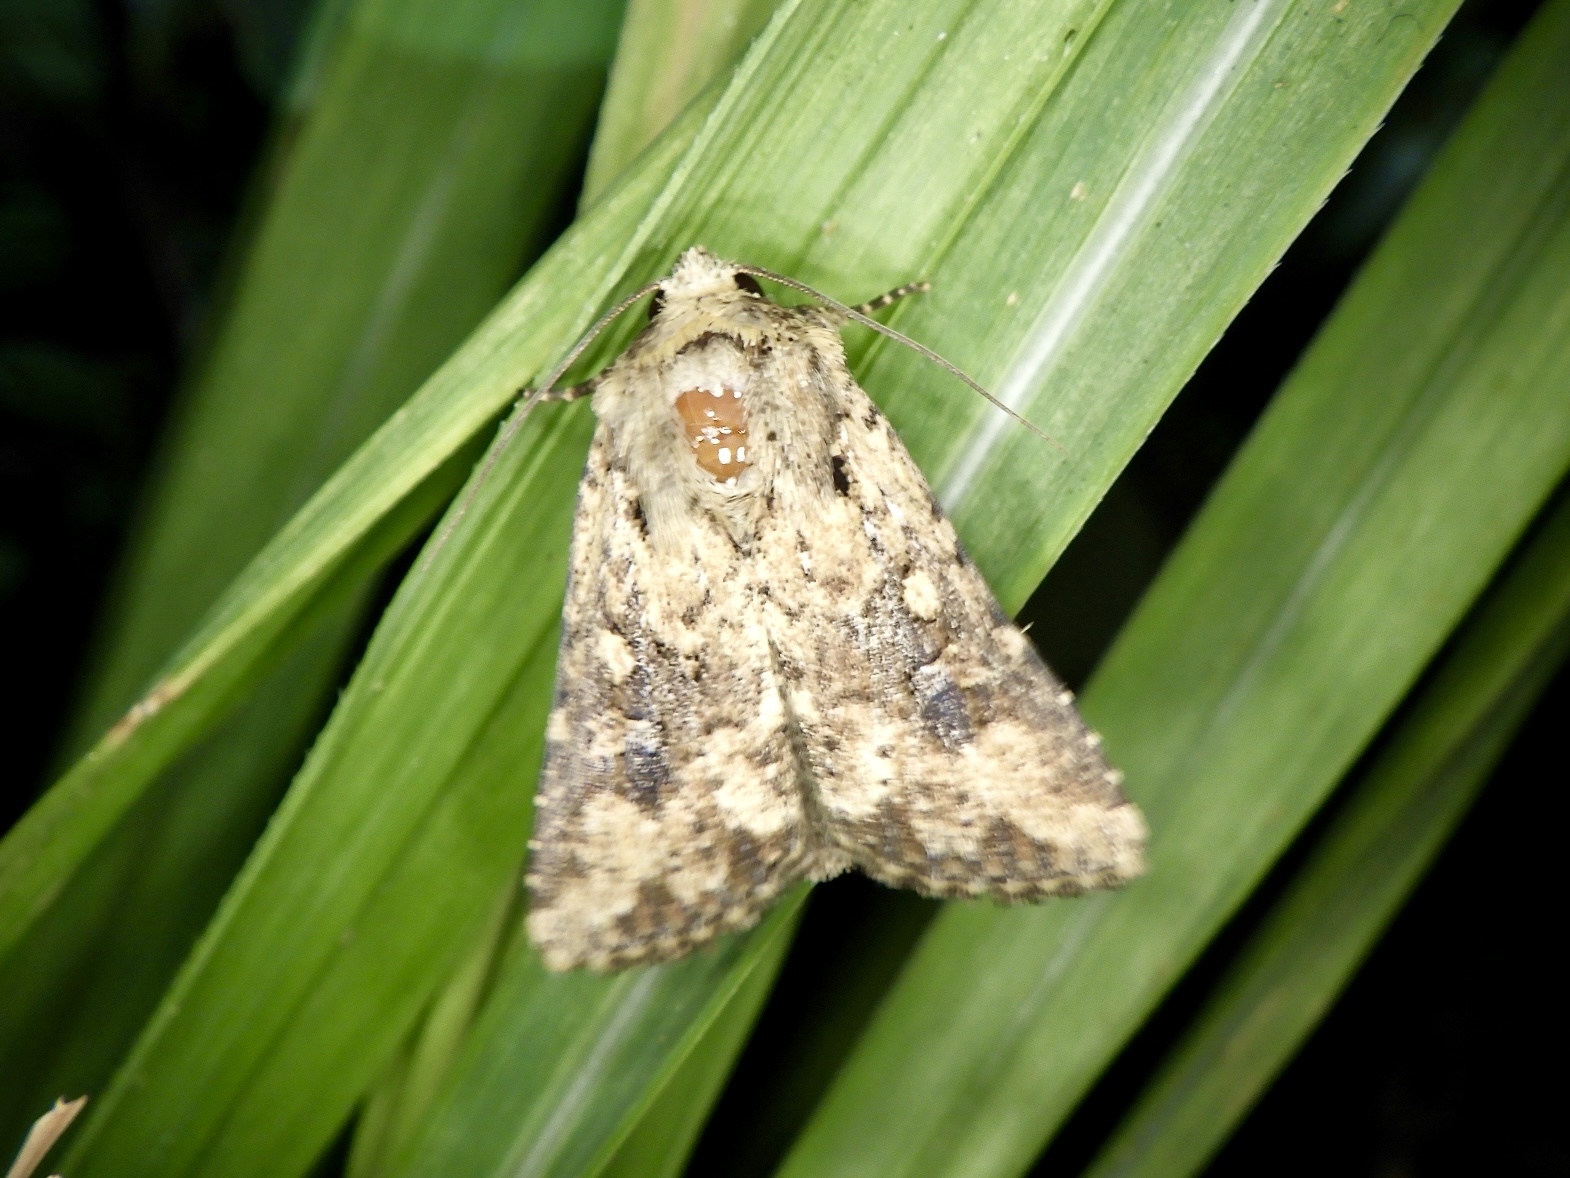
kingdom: Animalia
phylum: Arthropoda
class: Insecta
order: Lepidoptera
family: Noctuidae
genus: Mythimna
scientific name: Mythimna stolida
